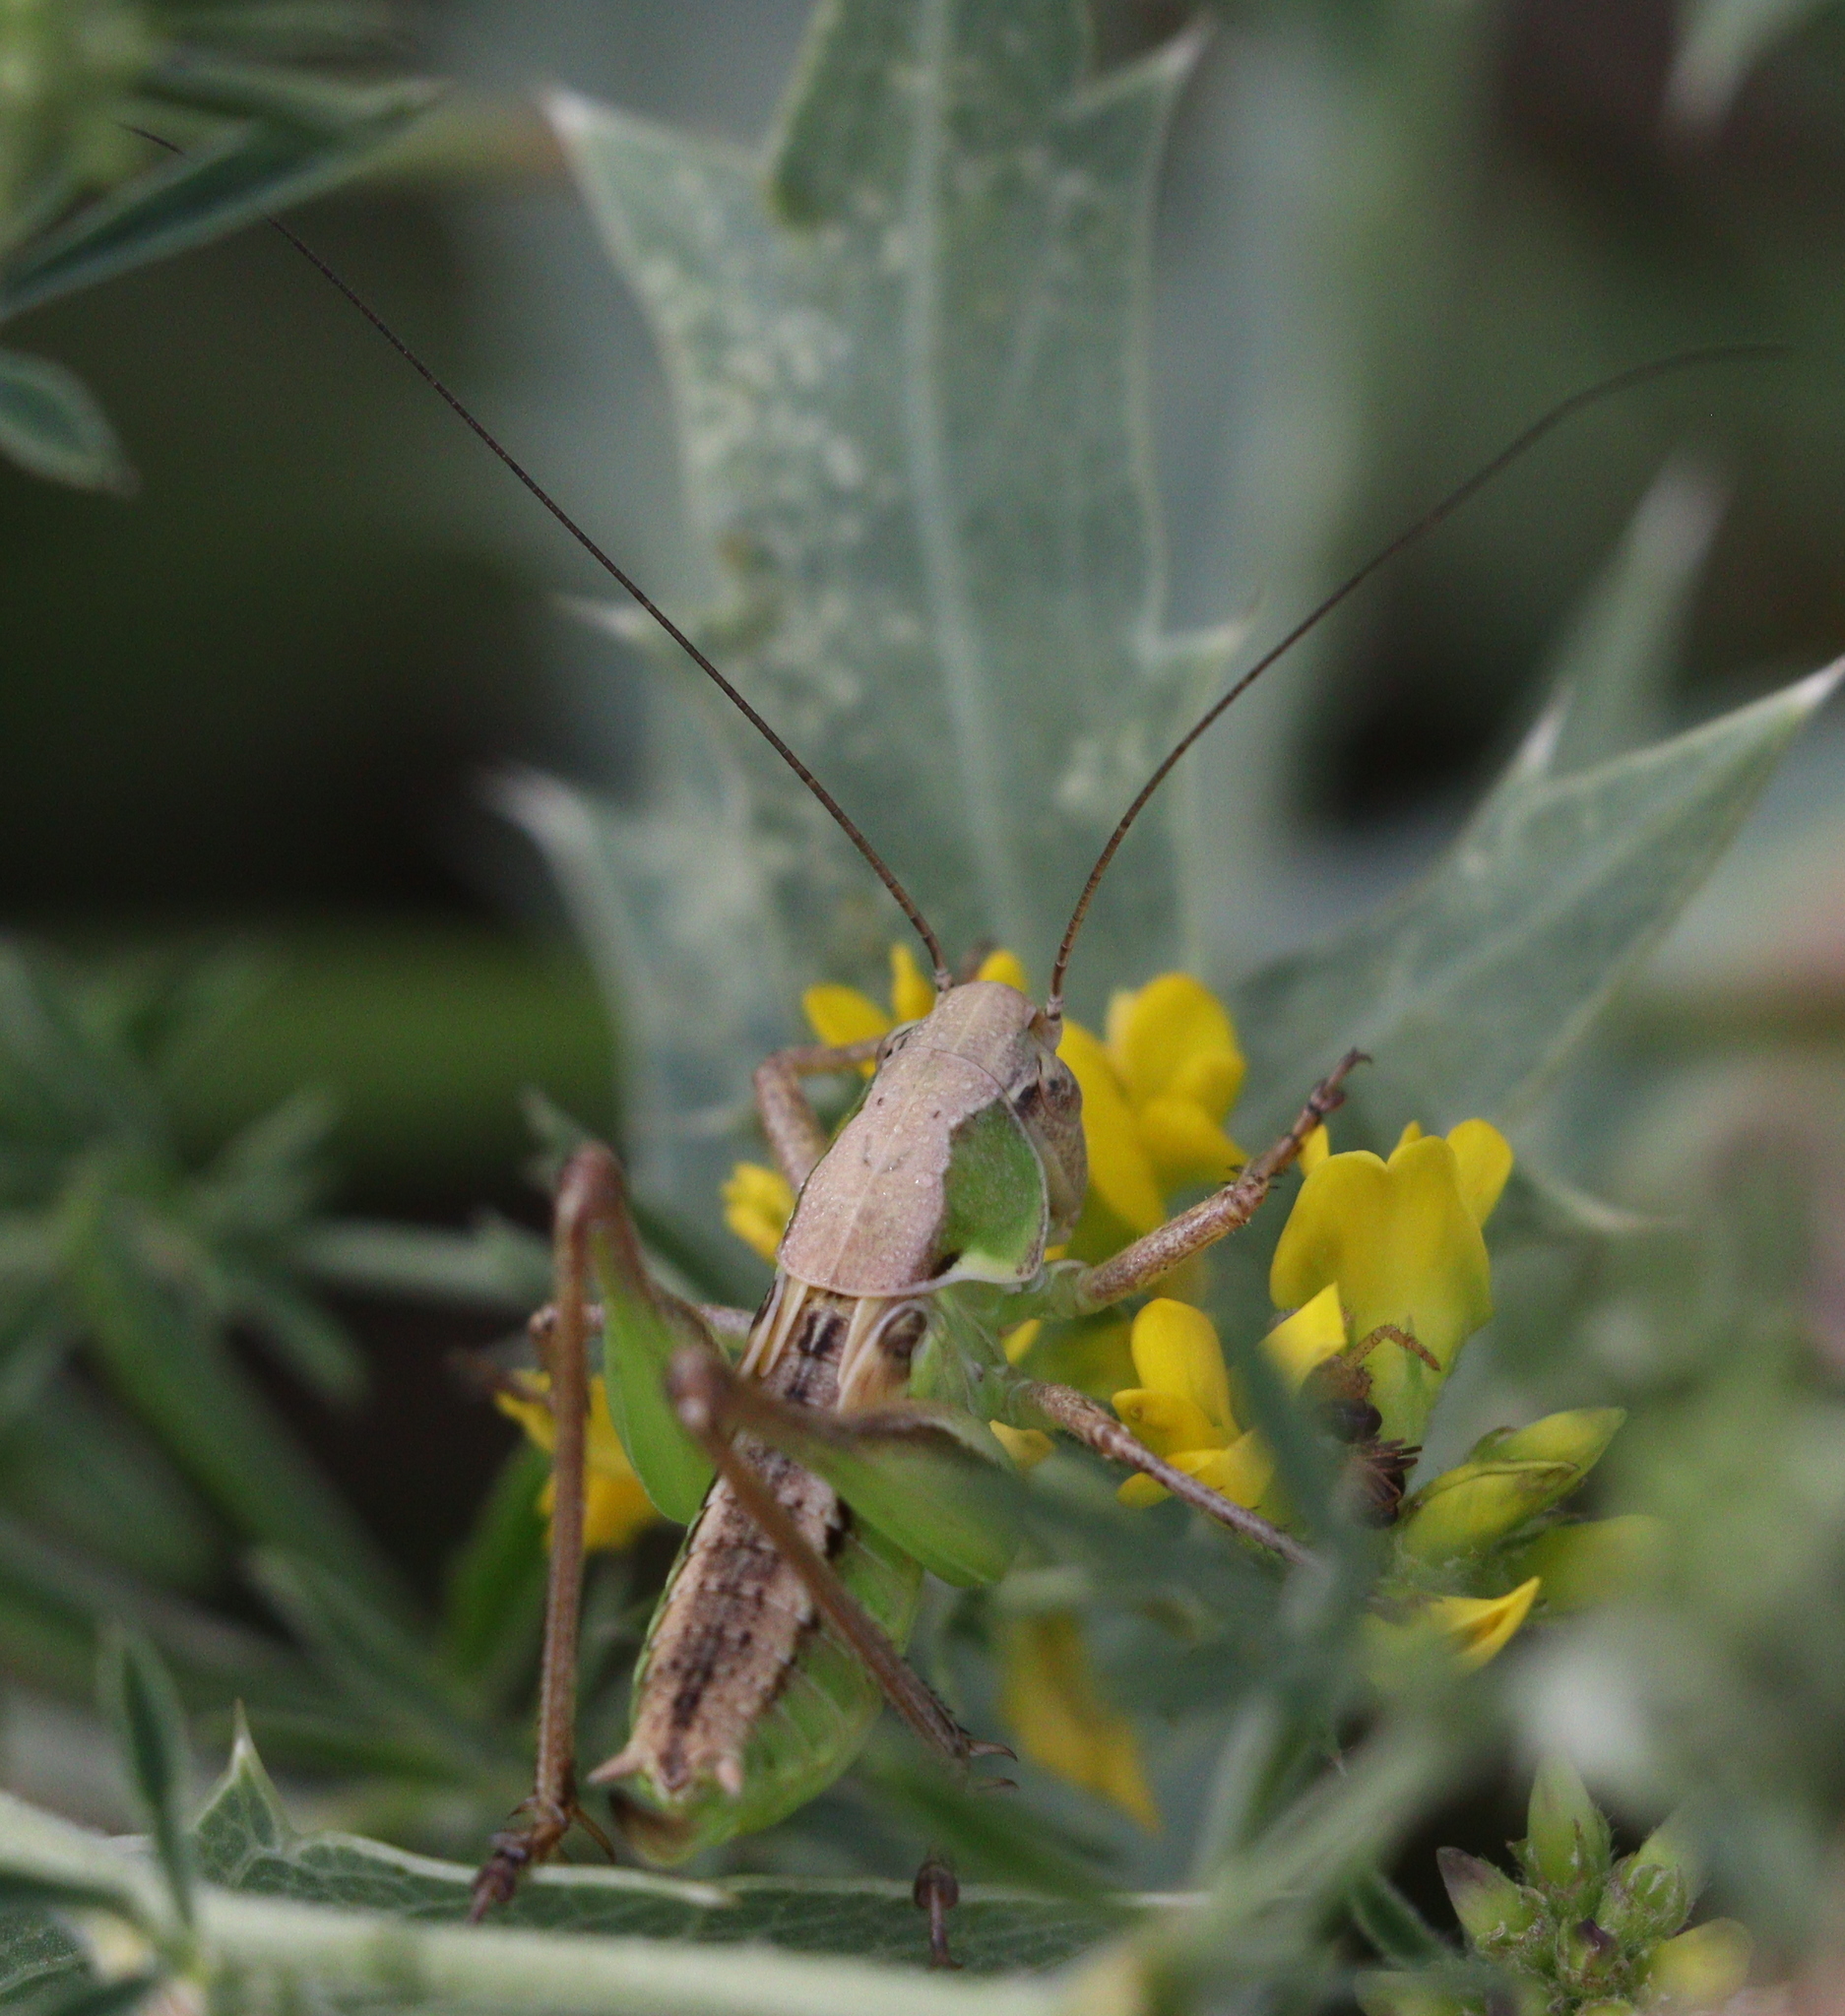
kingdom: Animalia
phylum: Arthropoda
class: Insecta
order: Orthoptera
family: Tettigoniidae
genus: Platycleis
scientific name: Platycleis albopunctata
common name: Grey bush-cricket
